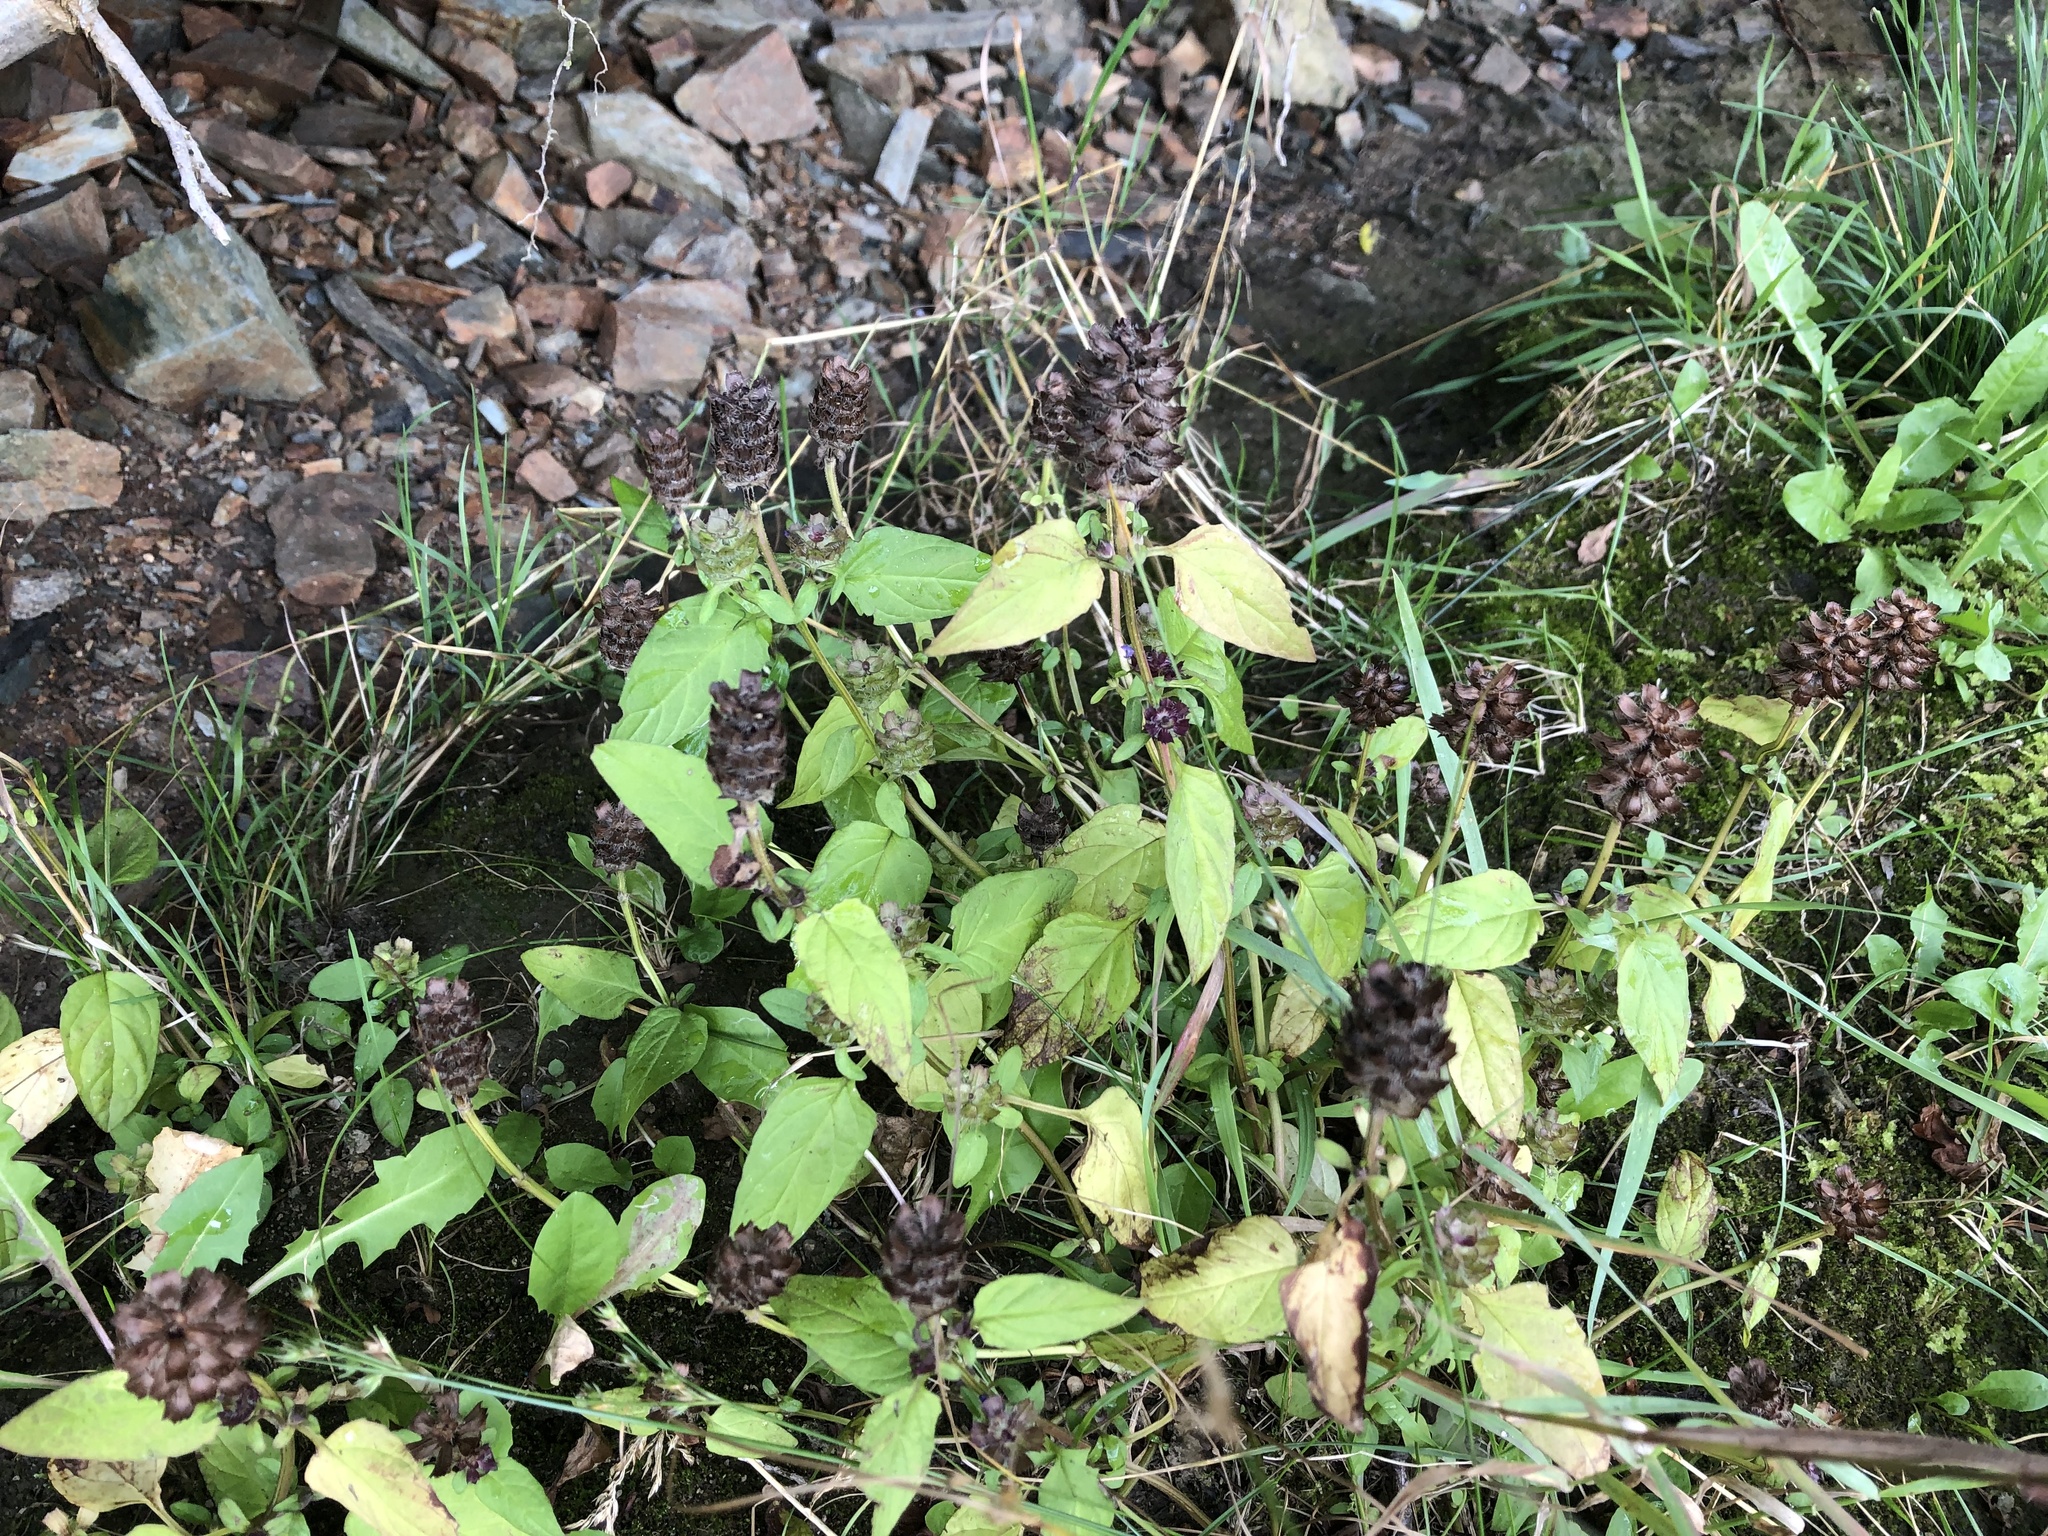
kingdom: Plantae
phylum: Tracheophyta
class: Magnoliopsida
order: Lamiales
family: Lamiaceae
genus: Prunella
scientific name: Prunella vulgaris
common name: Heal-all
